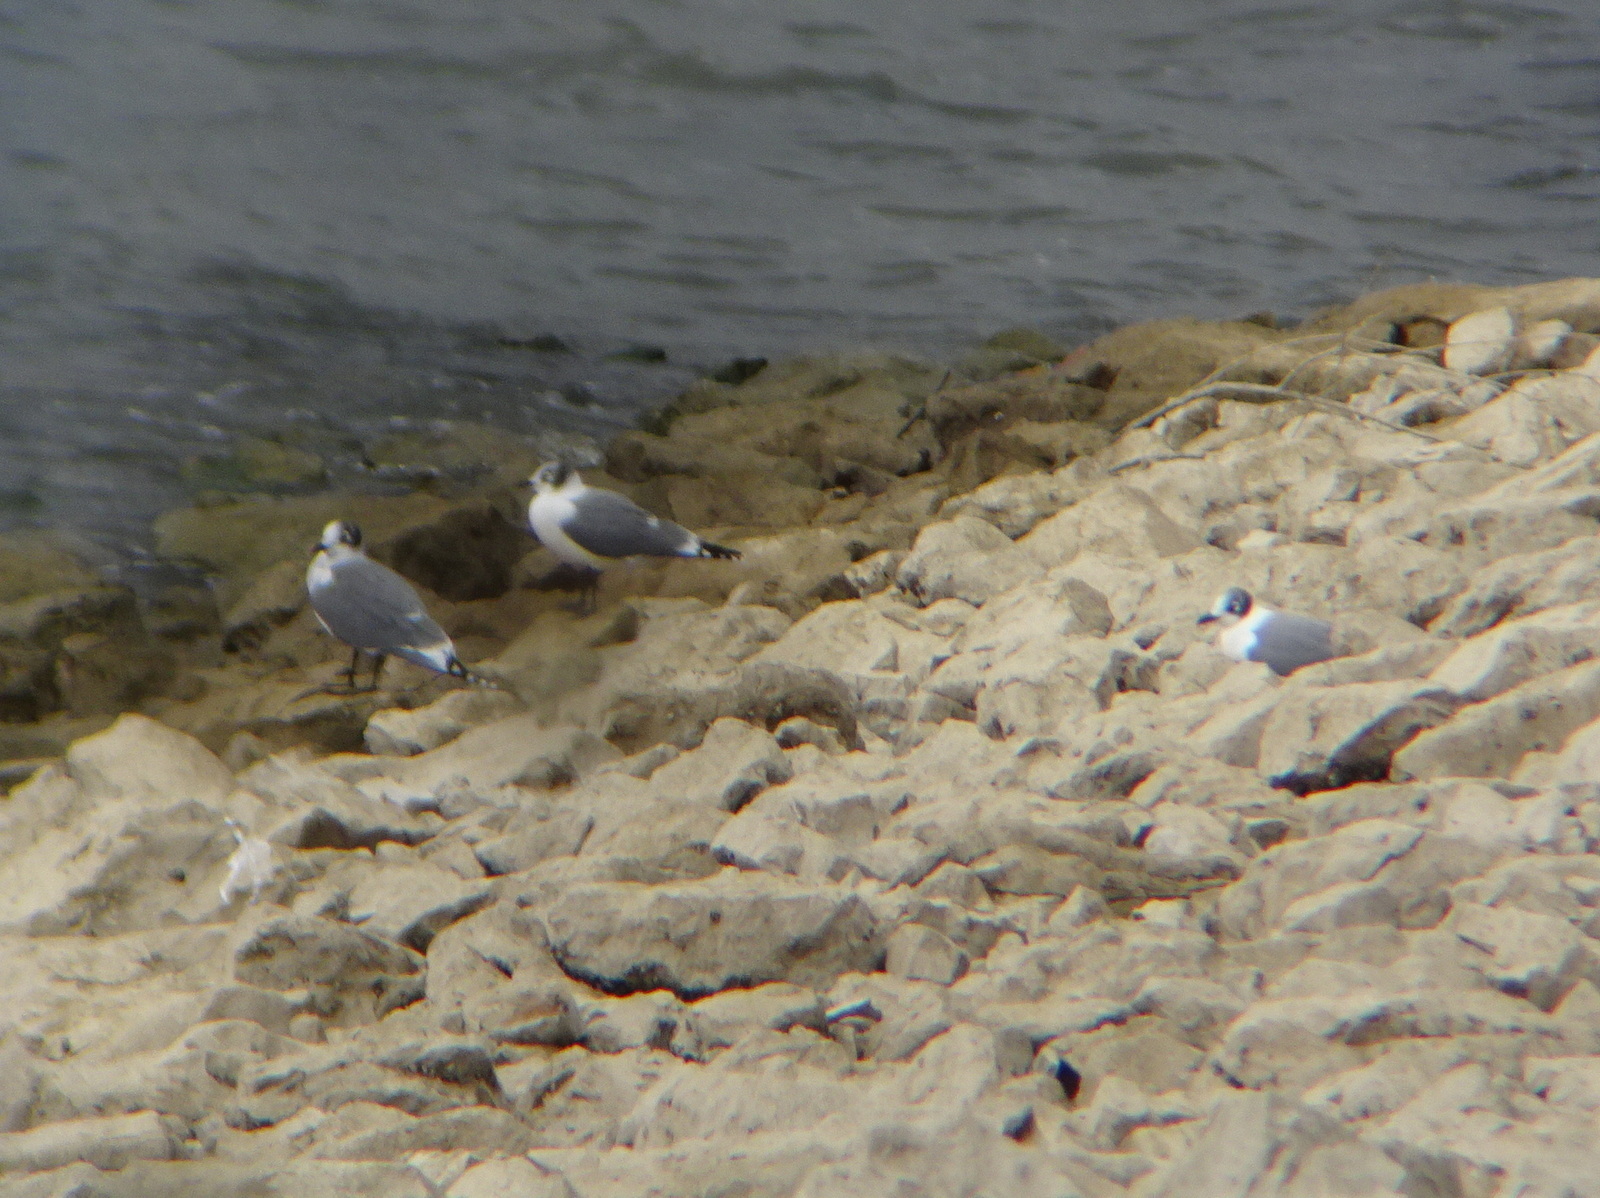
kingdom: Animalia
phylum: Chordata
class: Aves
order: Charadriiformes
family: Laridae
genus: Leucophaeus
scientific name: Leucophaeus pipixcan
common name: Franklin's gull
